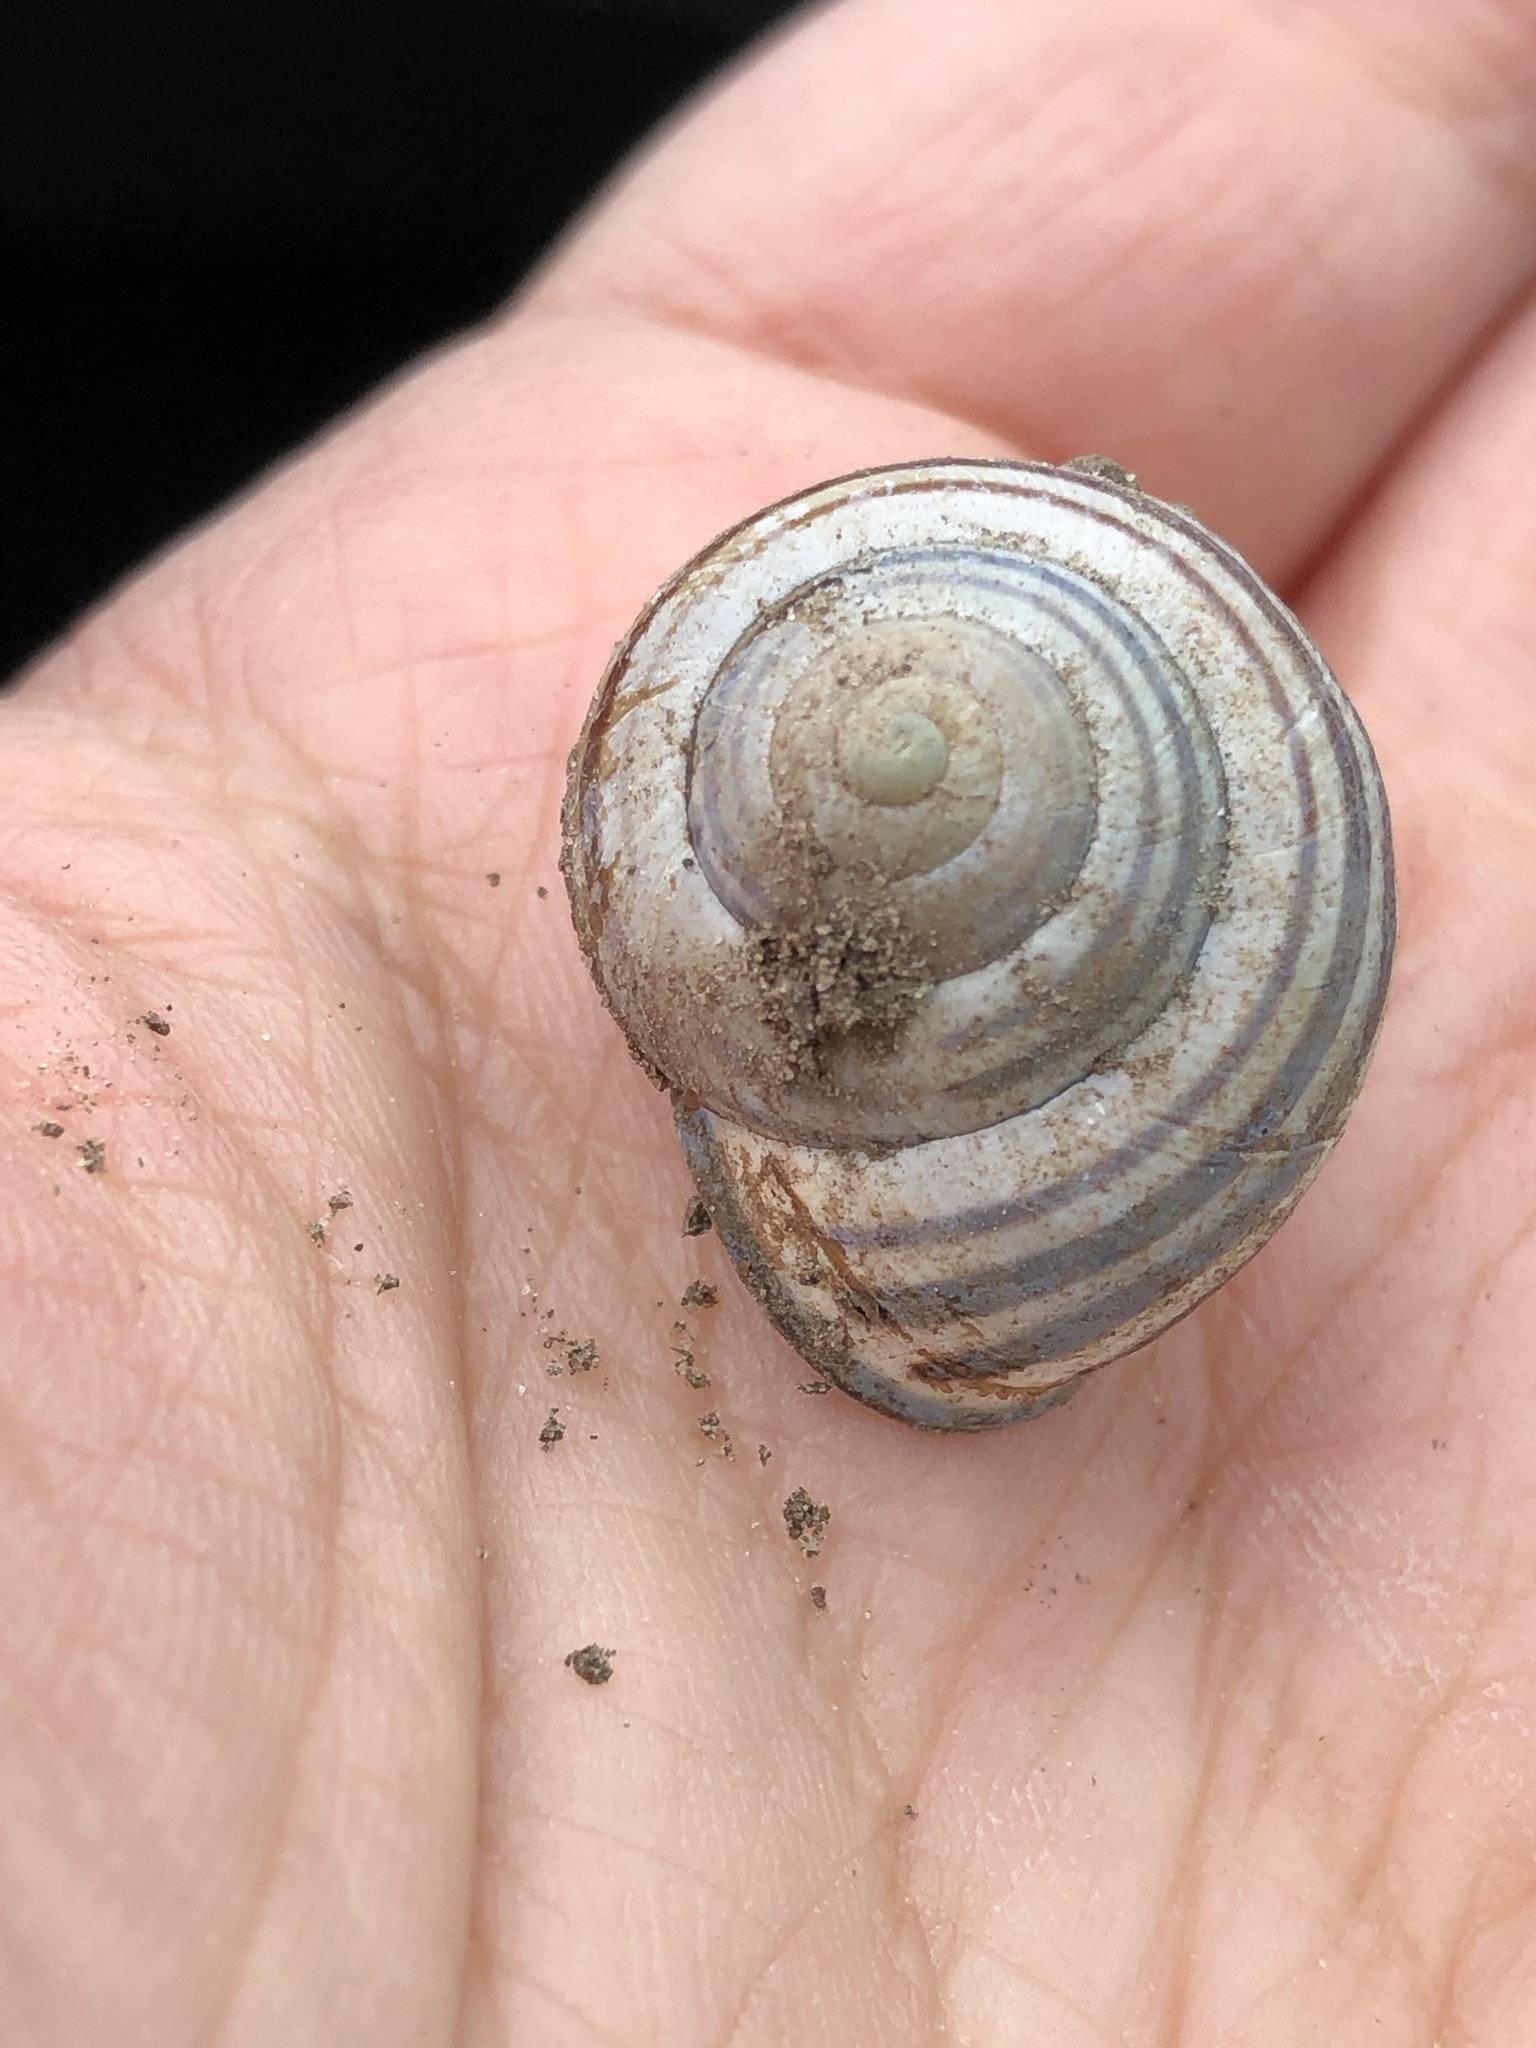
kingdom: Animalia
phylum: Mollusca
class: Gastropoda
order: Stylommatophora
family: Helicidae
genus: Cepaea
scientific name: Cepaea nemoralis
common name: Grovesnail
